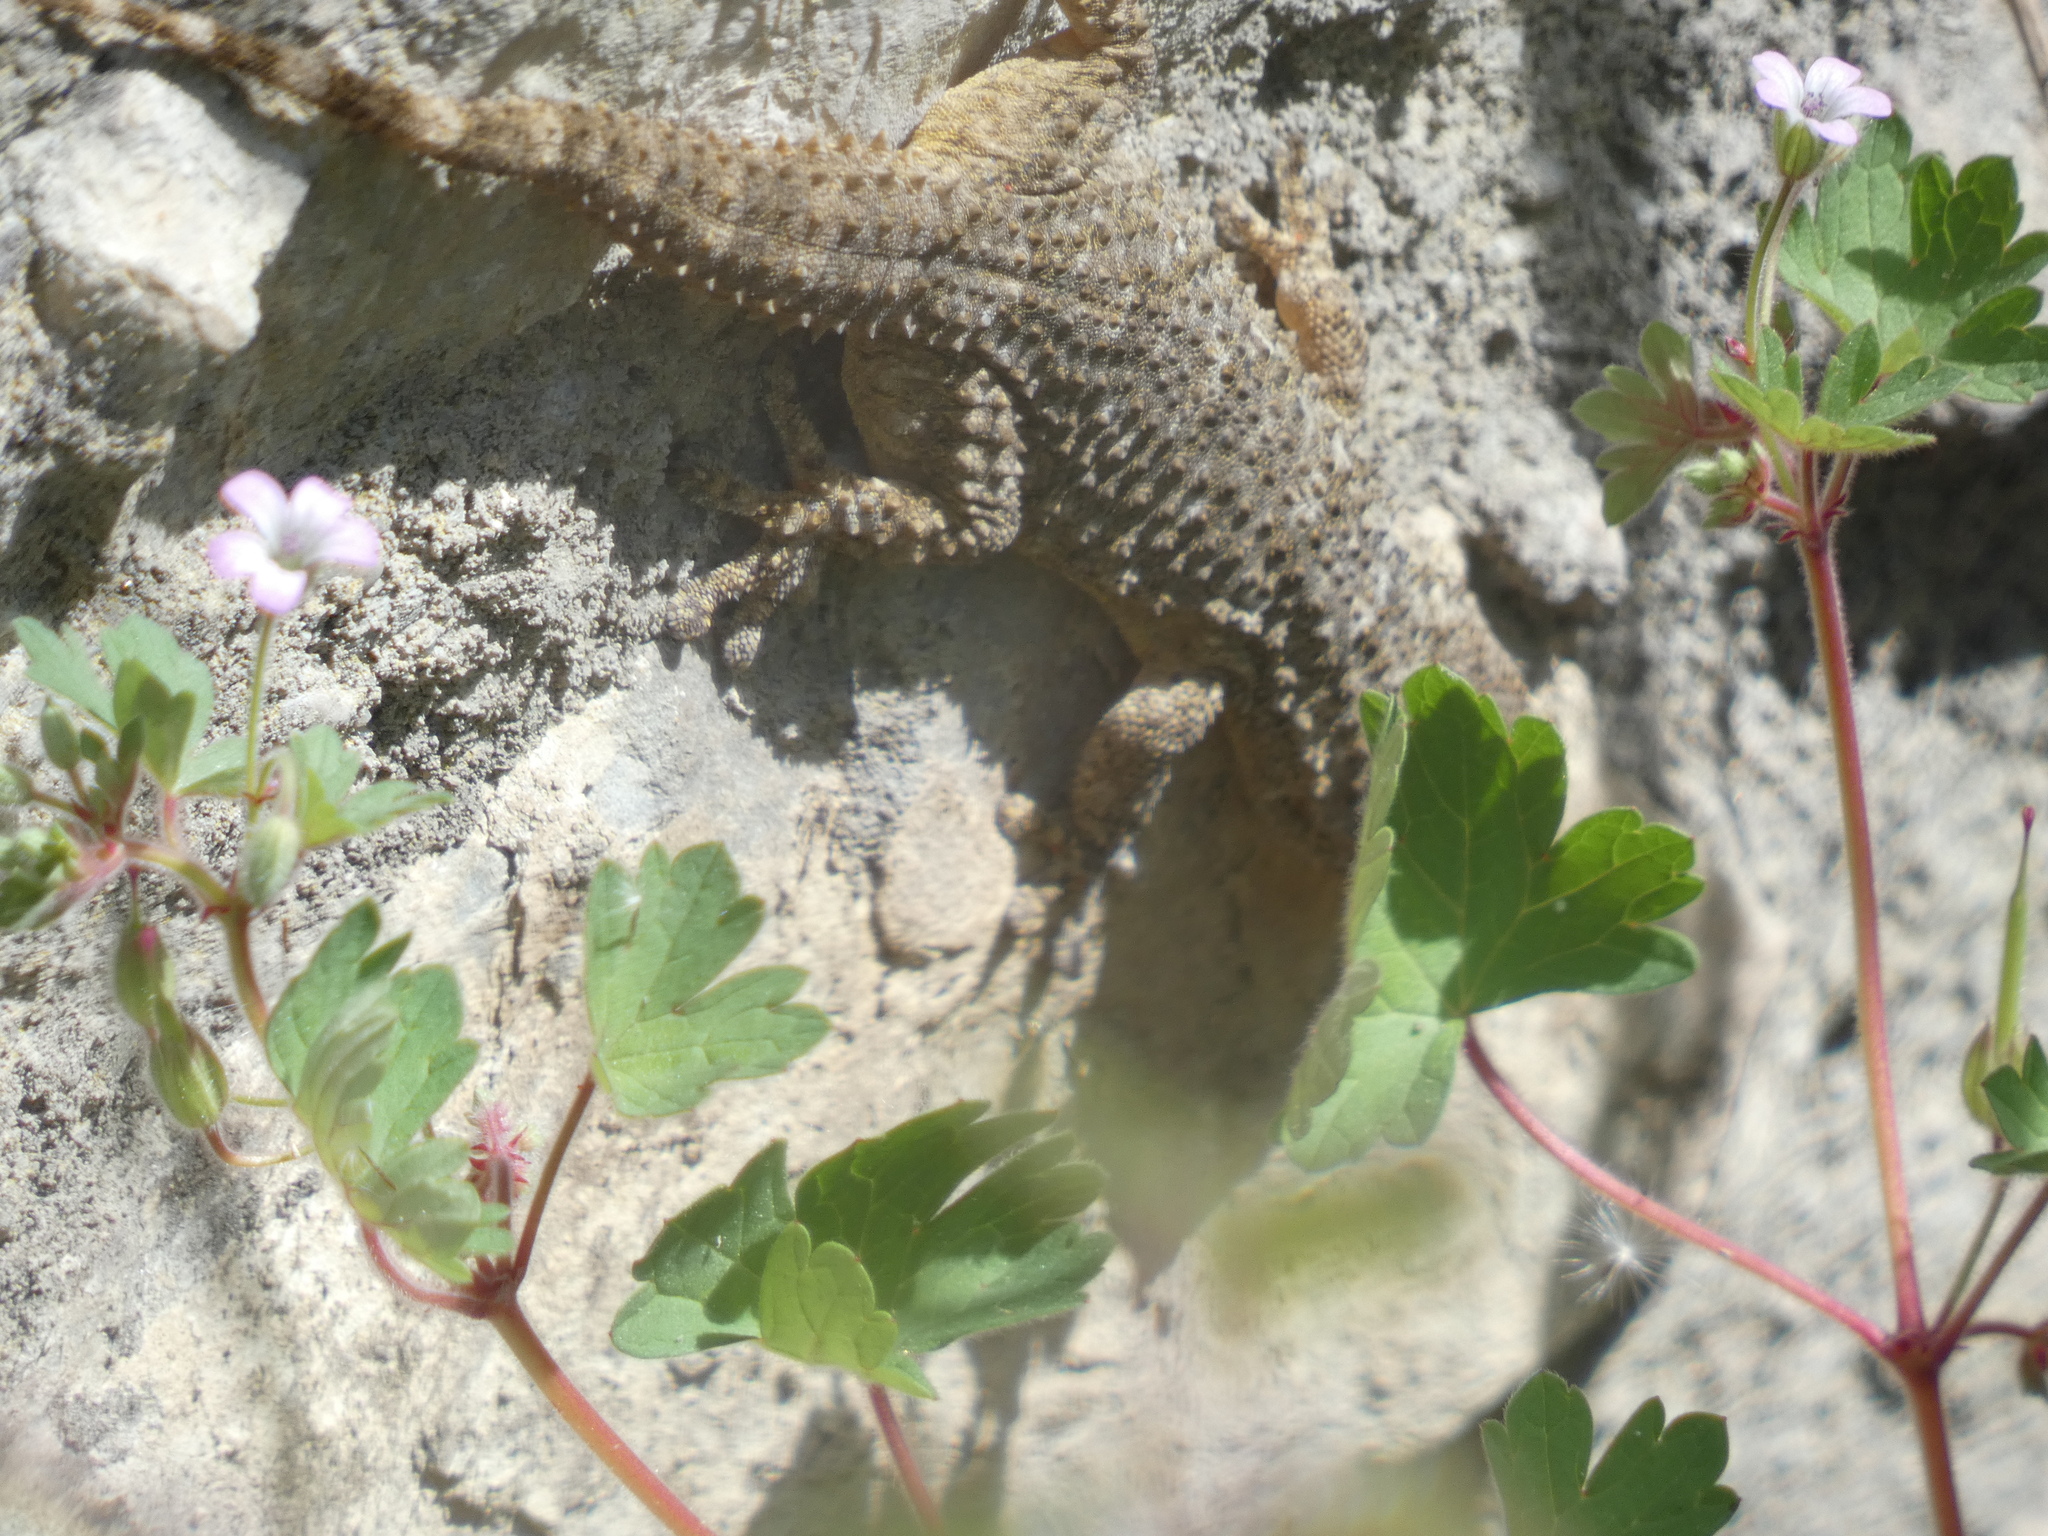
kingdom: Animalia
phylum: Chordata
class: Squamata
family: Phyllodactylidae
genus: Tarentola
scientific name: Tarentola mauritanica
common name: Moorish gecko
